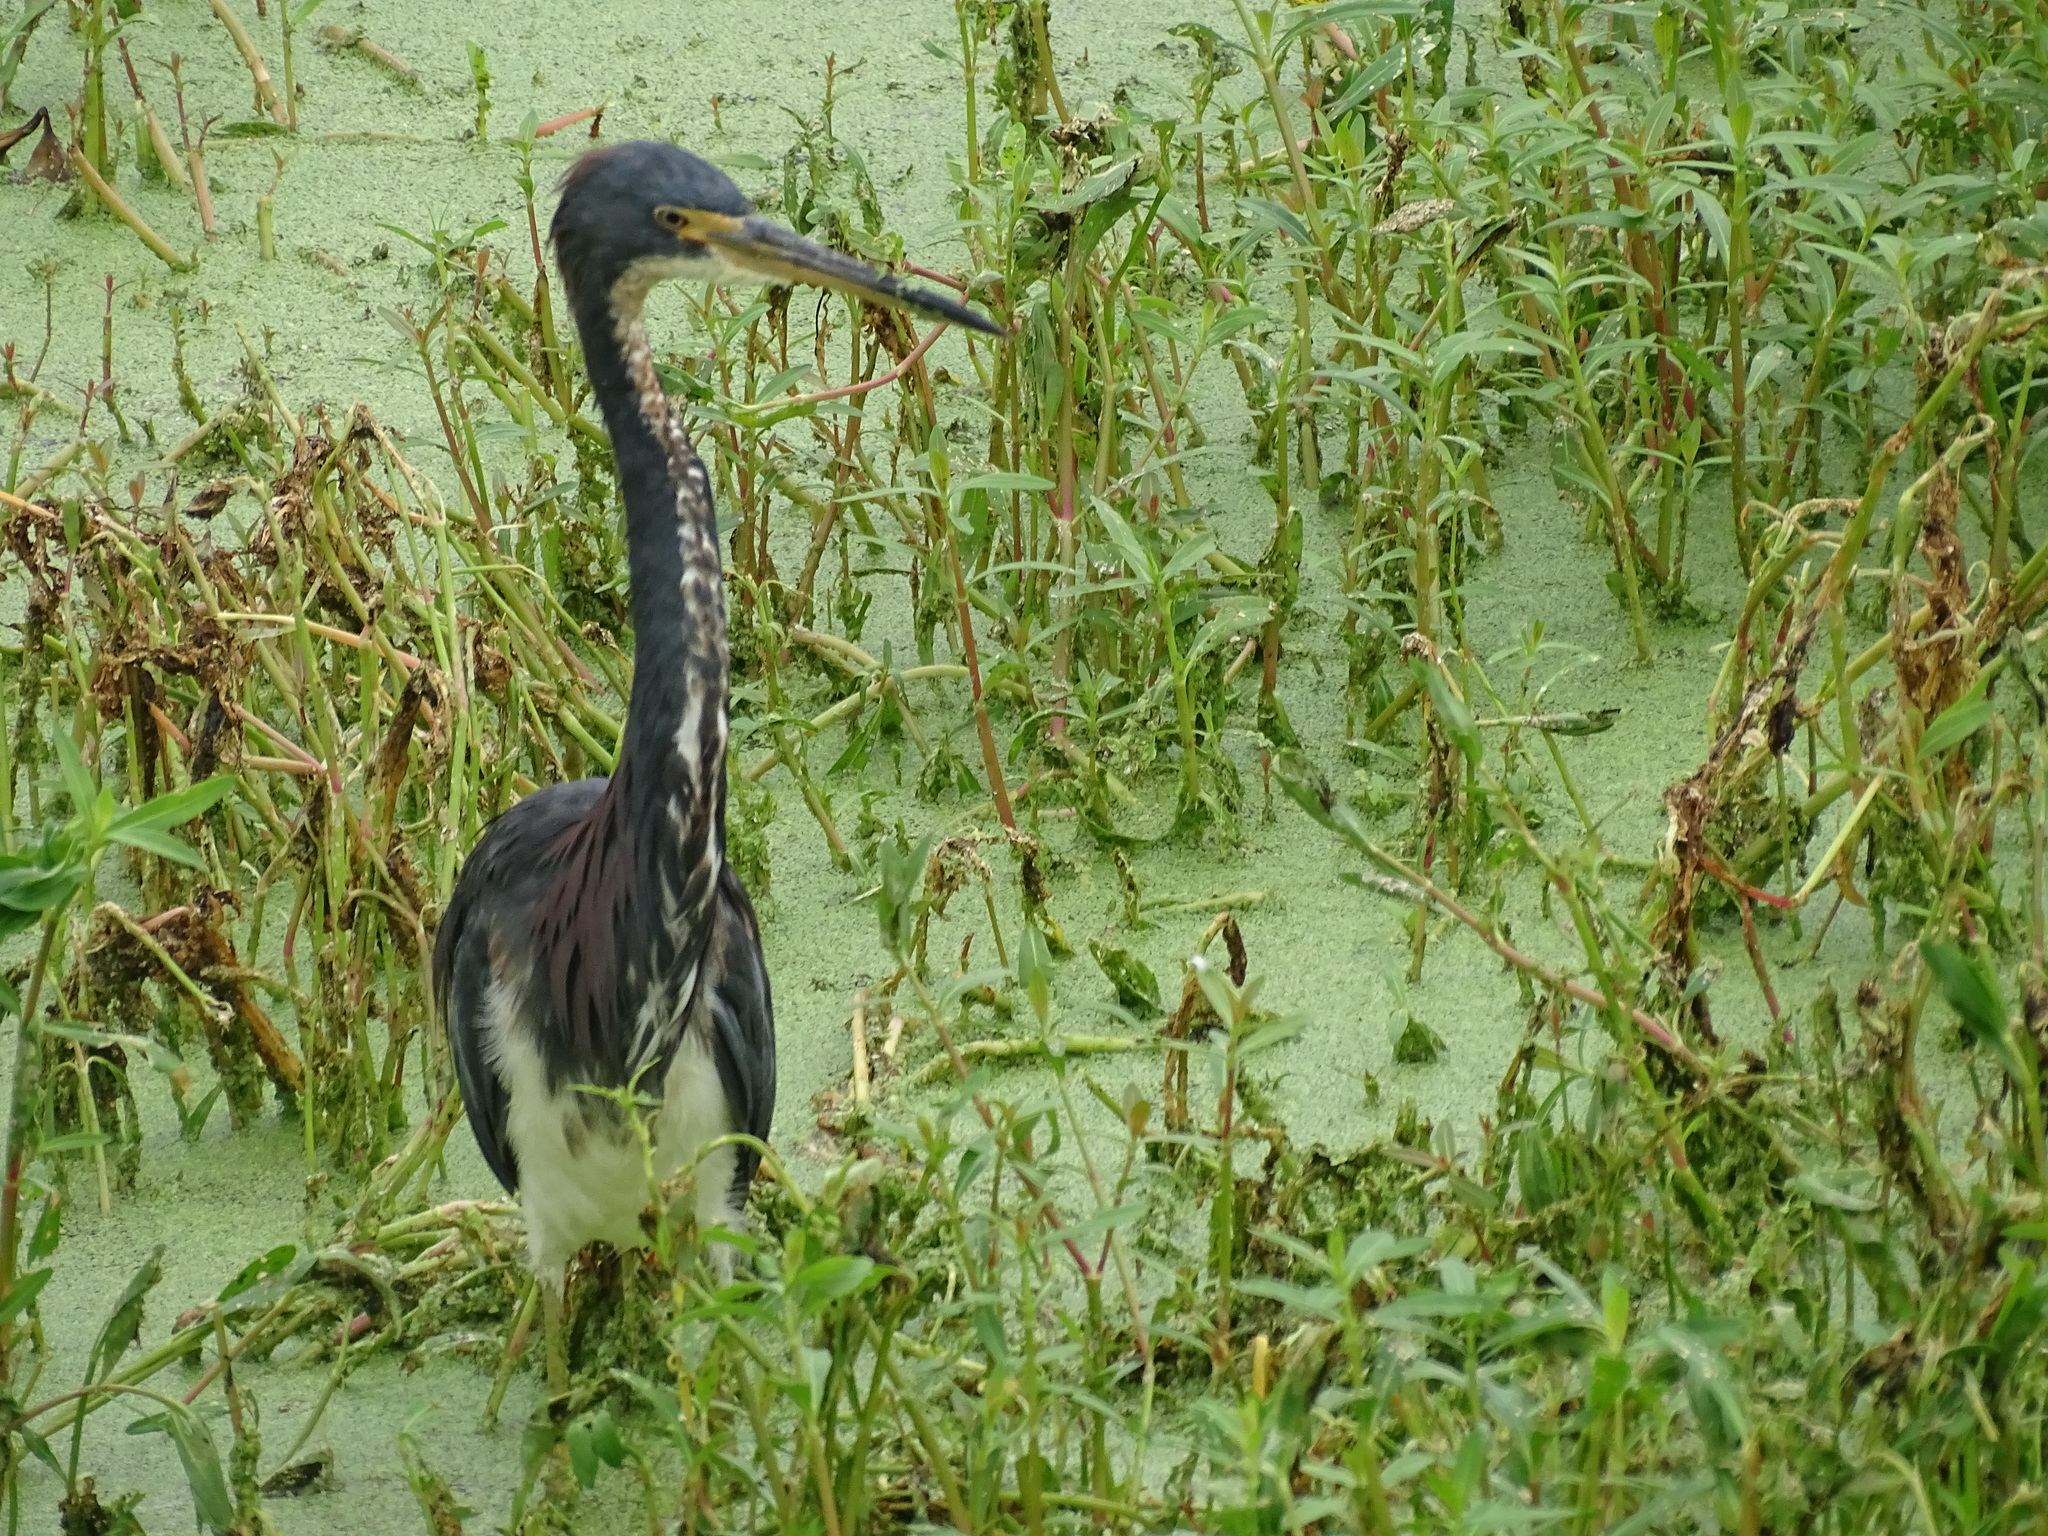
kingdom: Animalia
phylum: Chordata
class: Aves
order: Pelecaniformes
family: Ardeidae
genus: Egretta
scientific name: Egretta tricolor
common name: Tricolored heron
